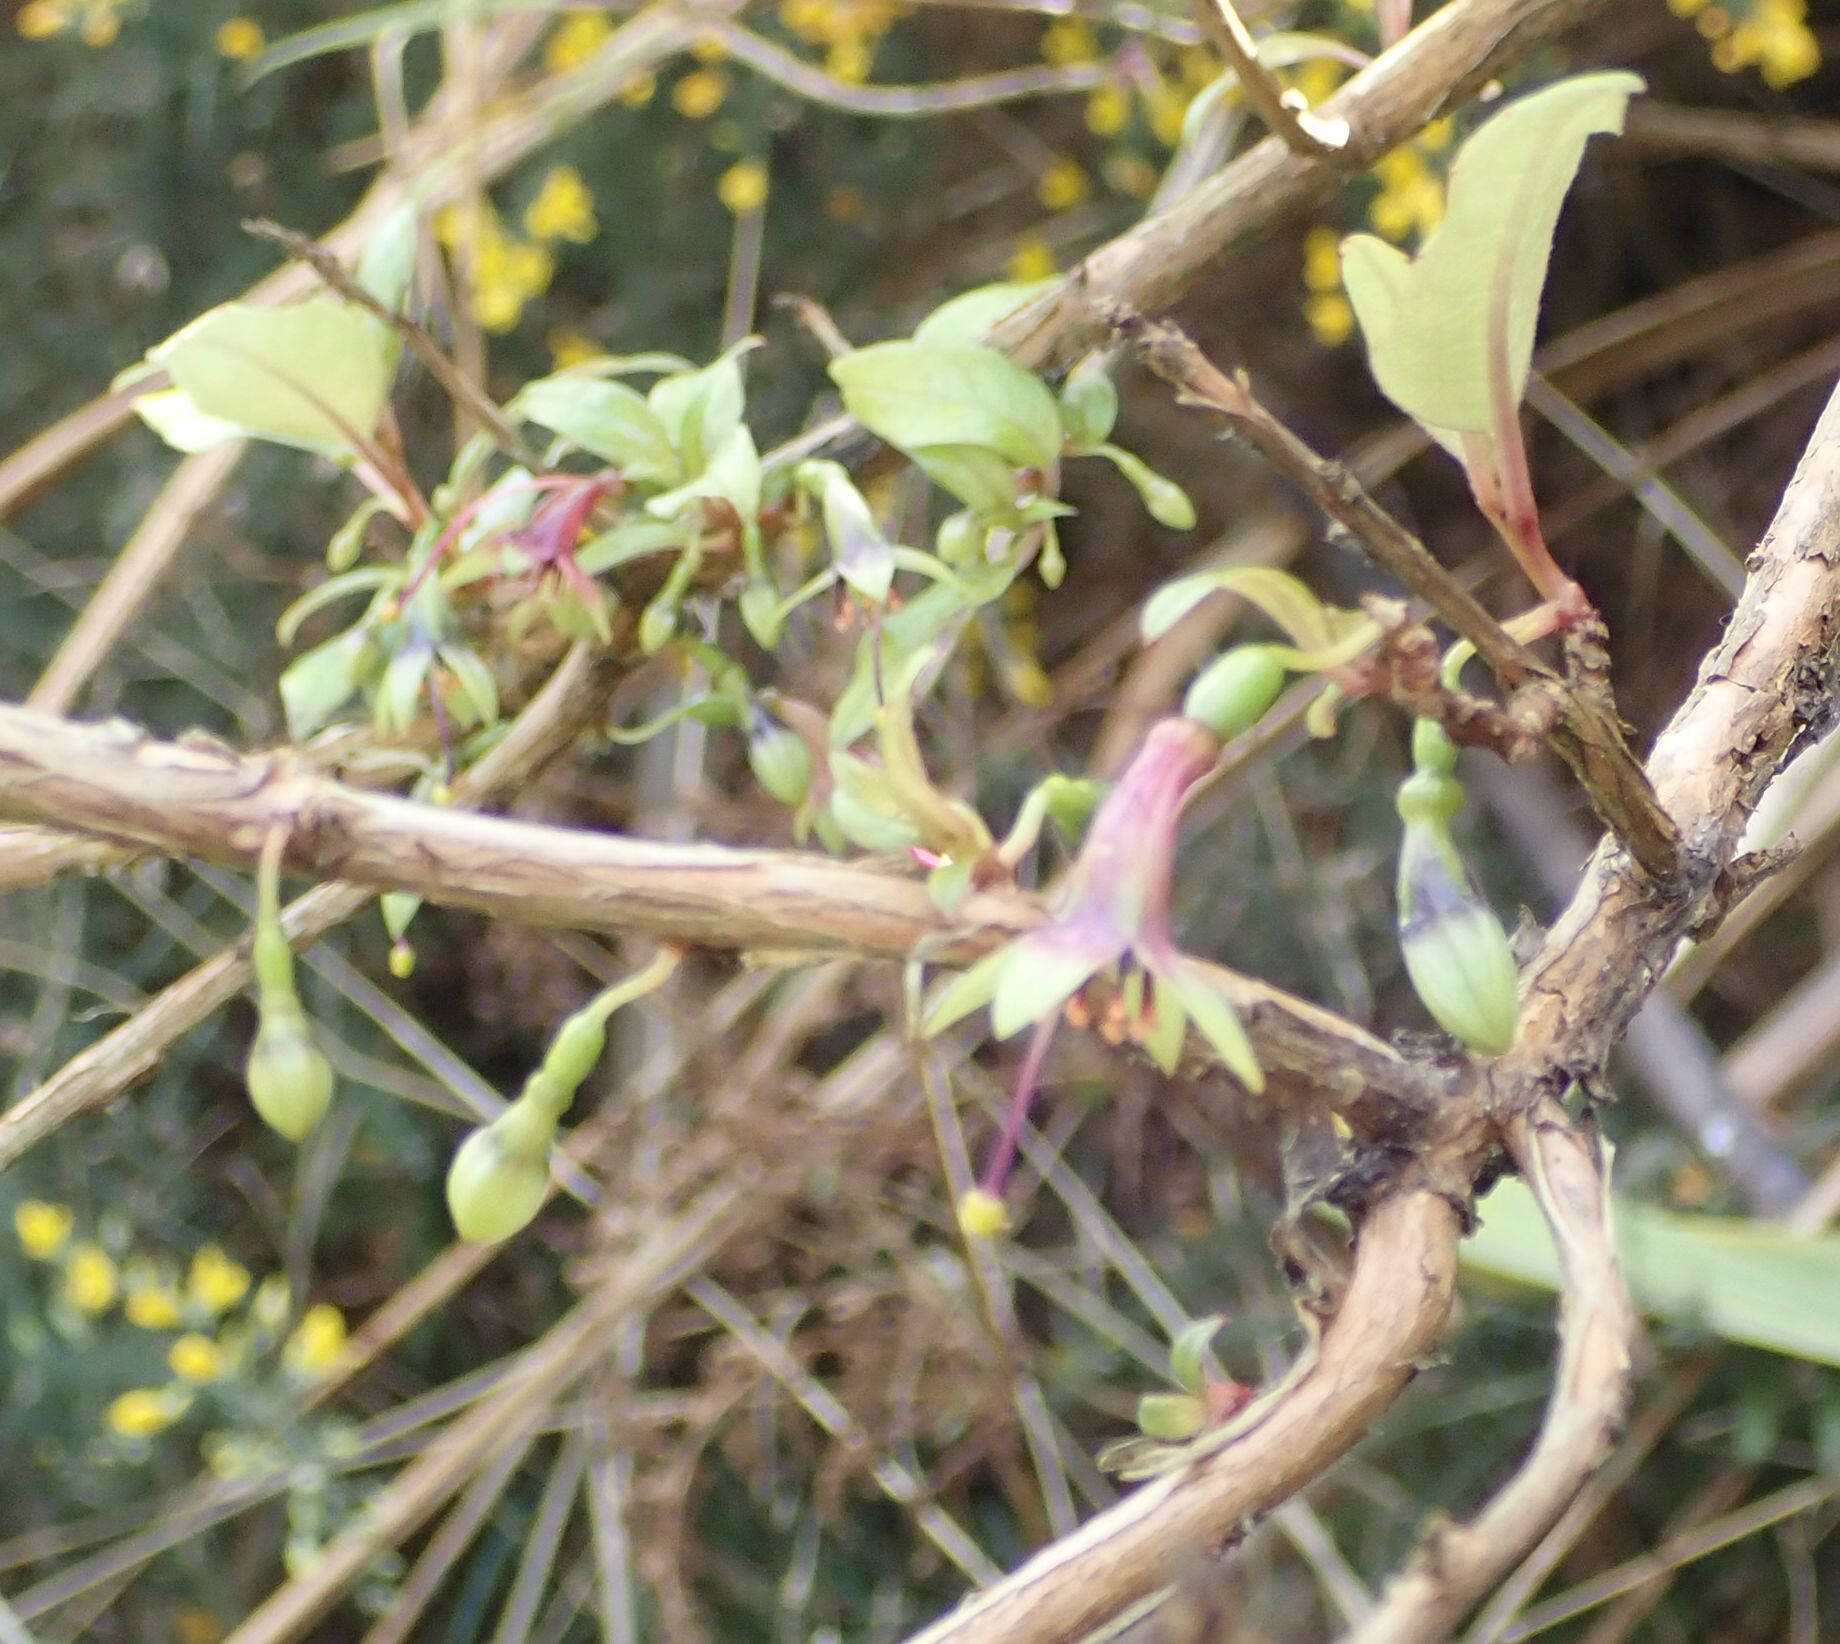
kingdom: Plantae
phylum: Tracheophyta
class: Magnoliopsida
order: Myrtales
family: Onagraceae
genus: Fuchsia
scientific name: Fuchsia excorticata
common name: Tree fuchsia
